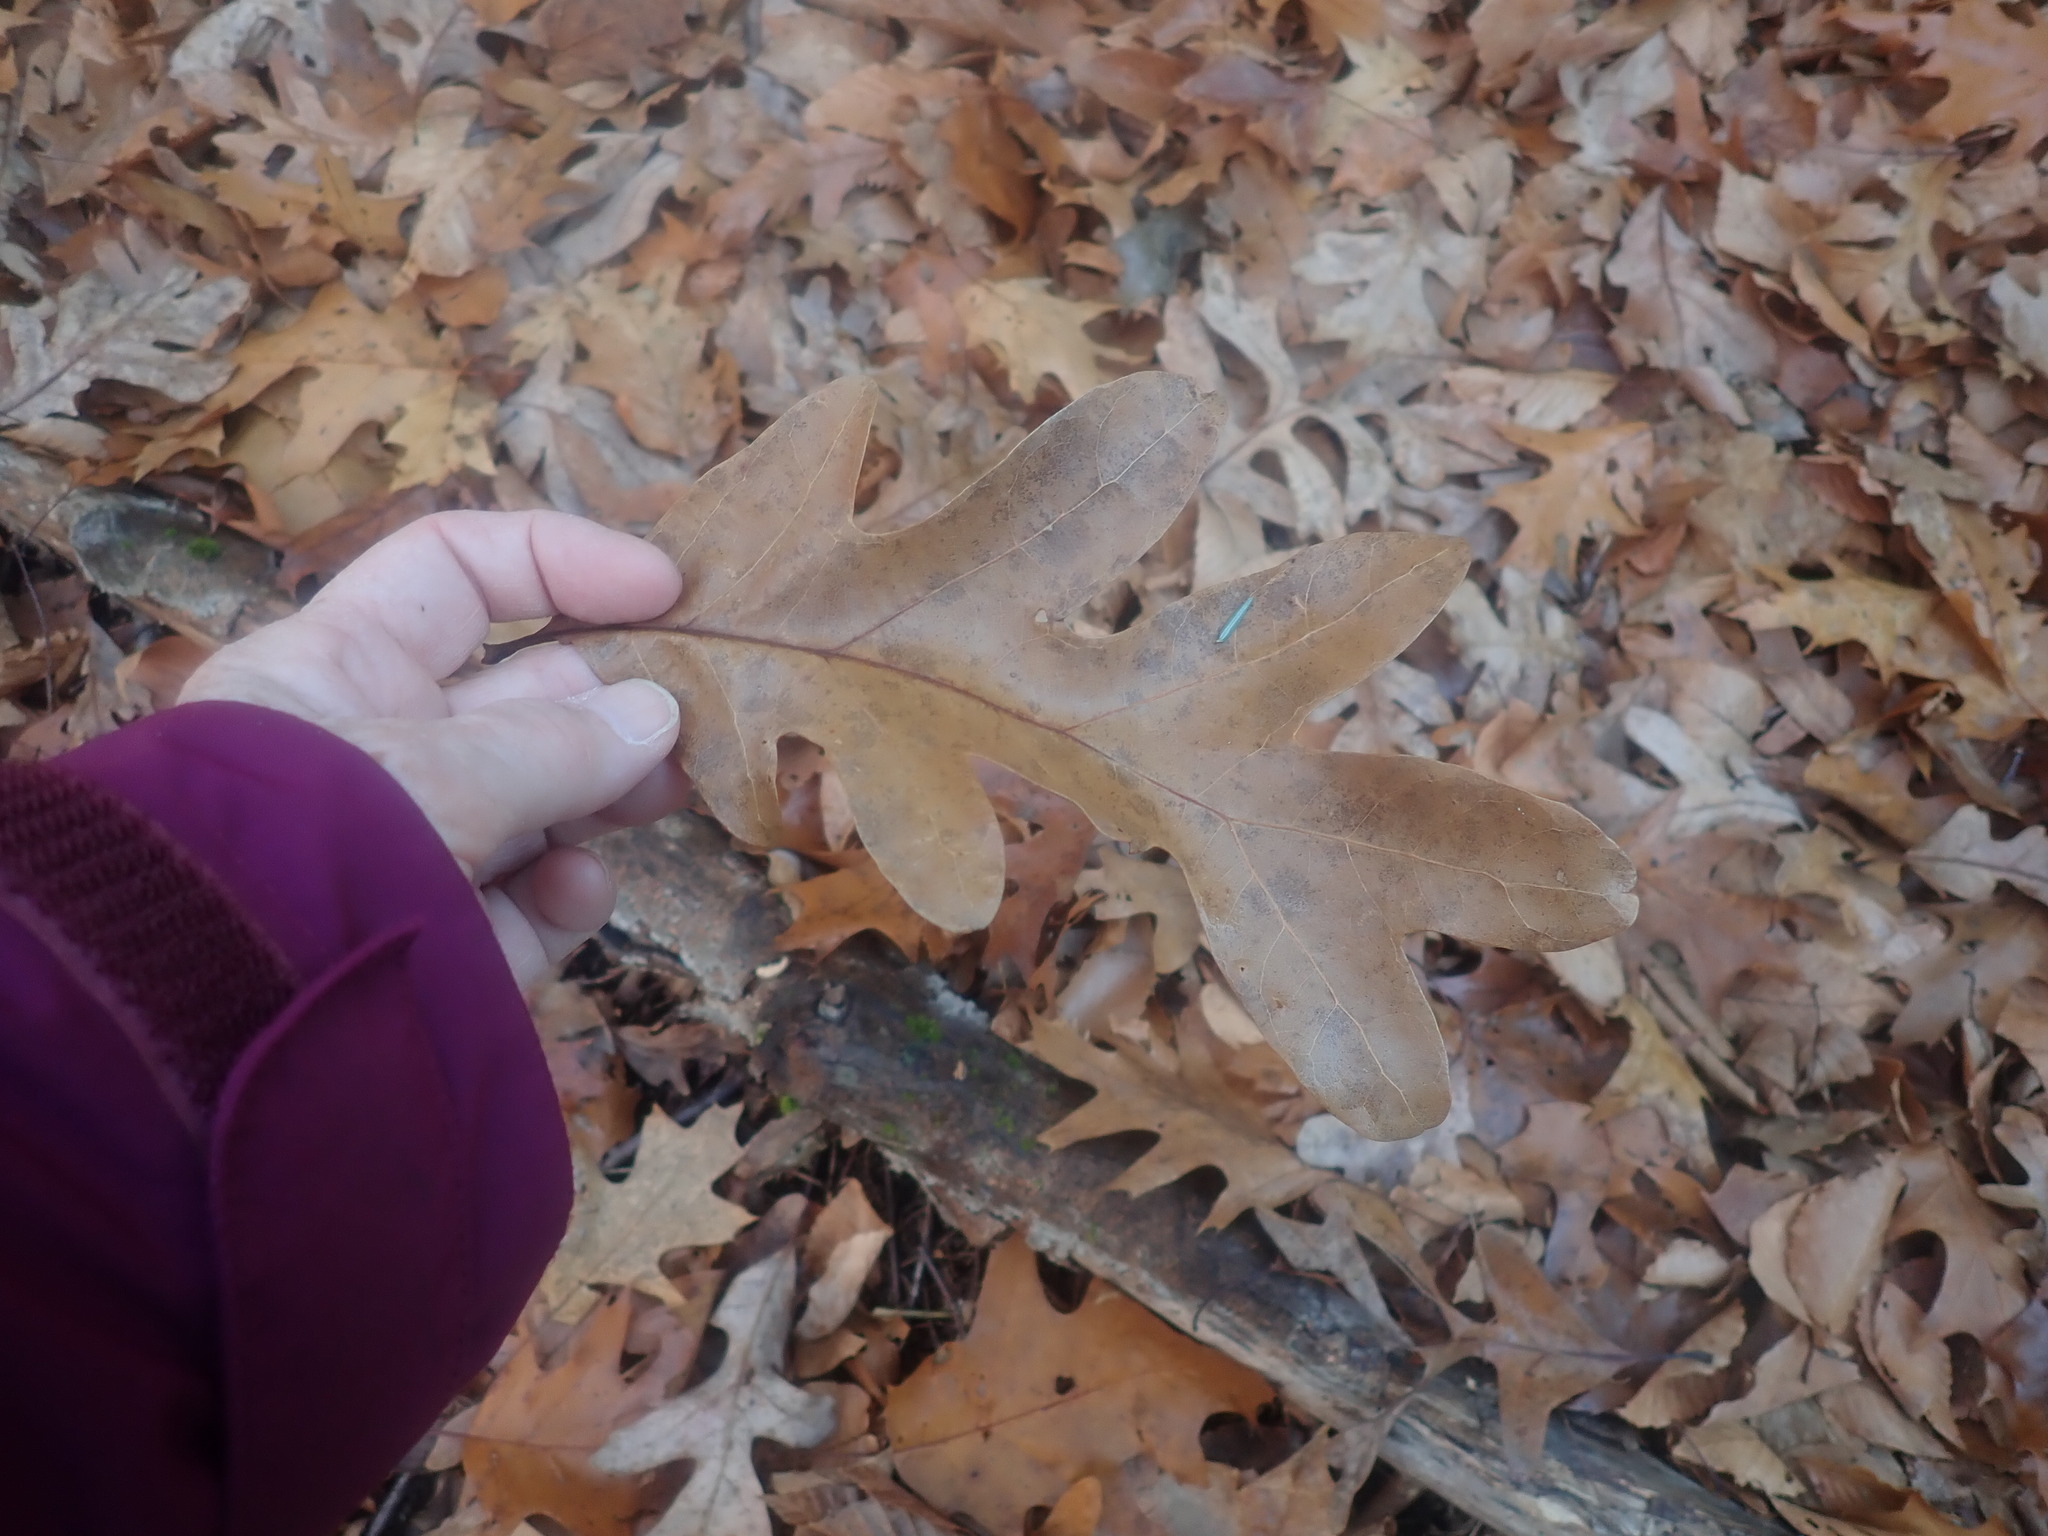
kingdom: Plantae
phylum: Tracheophyta
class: Magnoliopsida
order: Fagales
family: Fagaceae
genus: Quercus
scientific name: Quercus alba
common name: White oak
